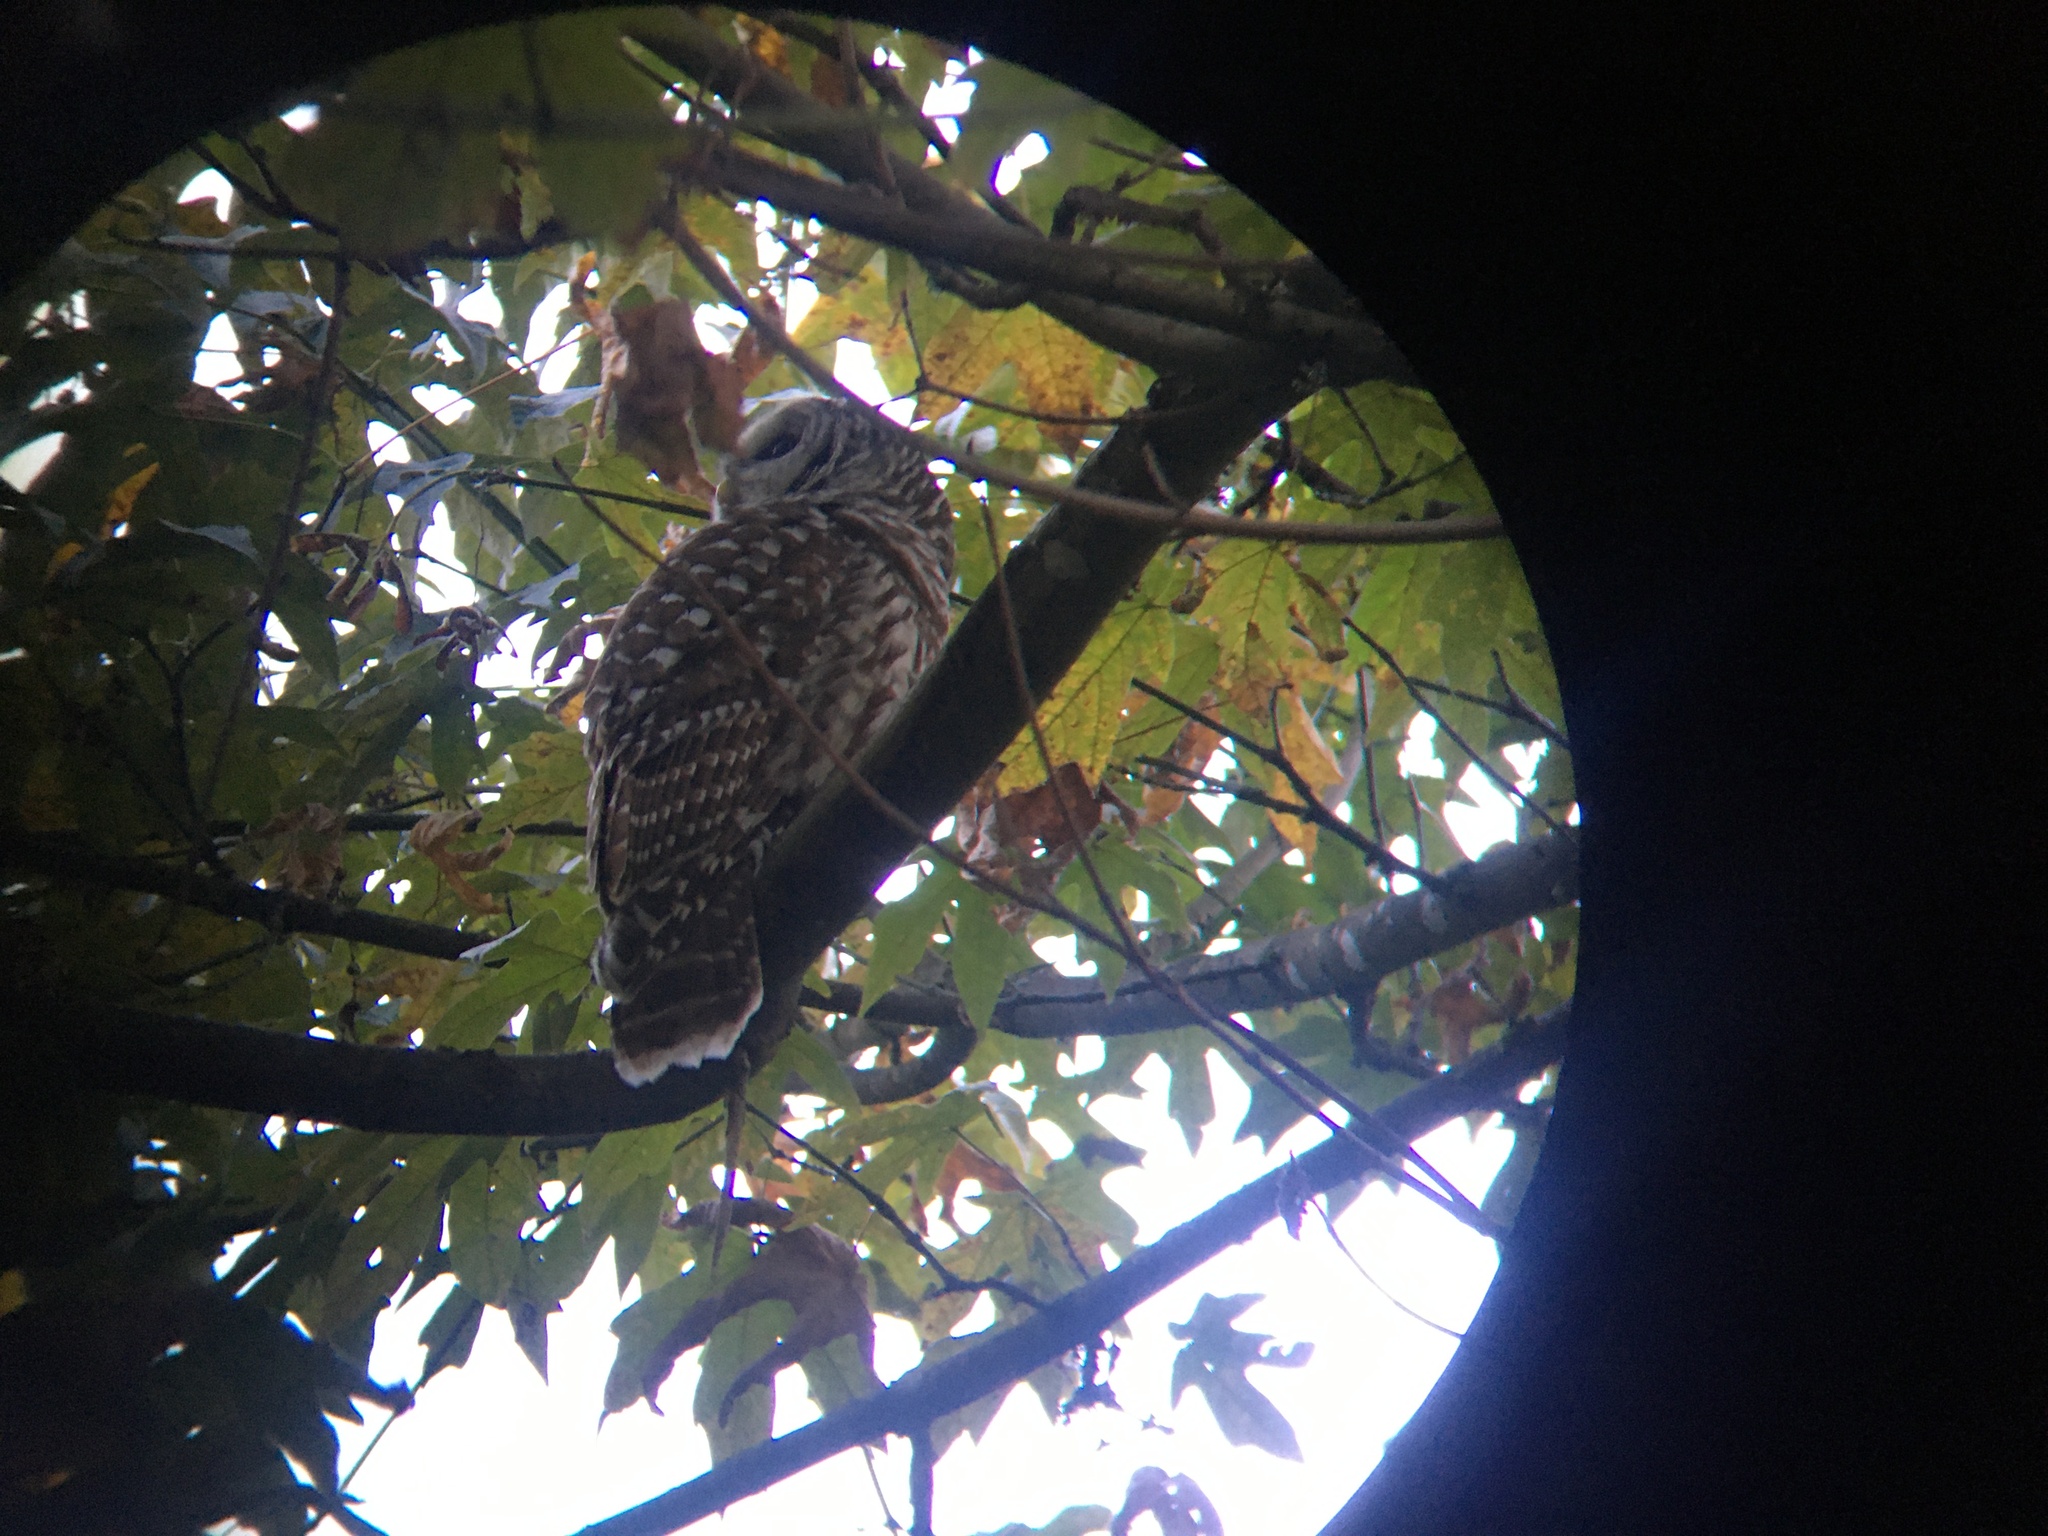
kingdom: Animalia
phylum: Chordata
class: Aves
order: Strigiformes
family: Strigidae
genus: Strix
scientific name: Strix varia
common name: Barred owl
